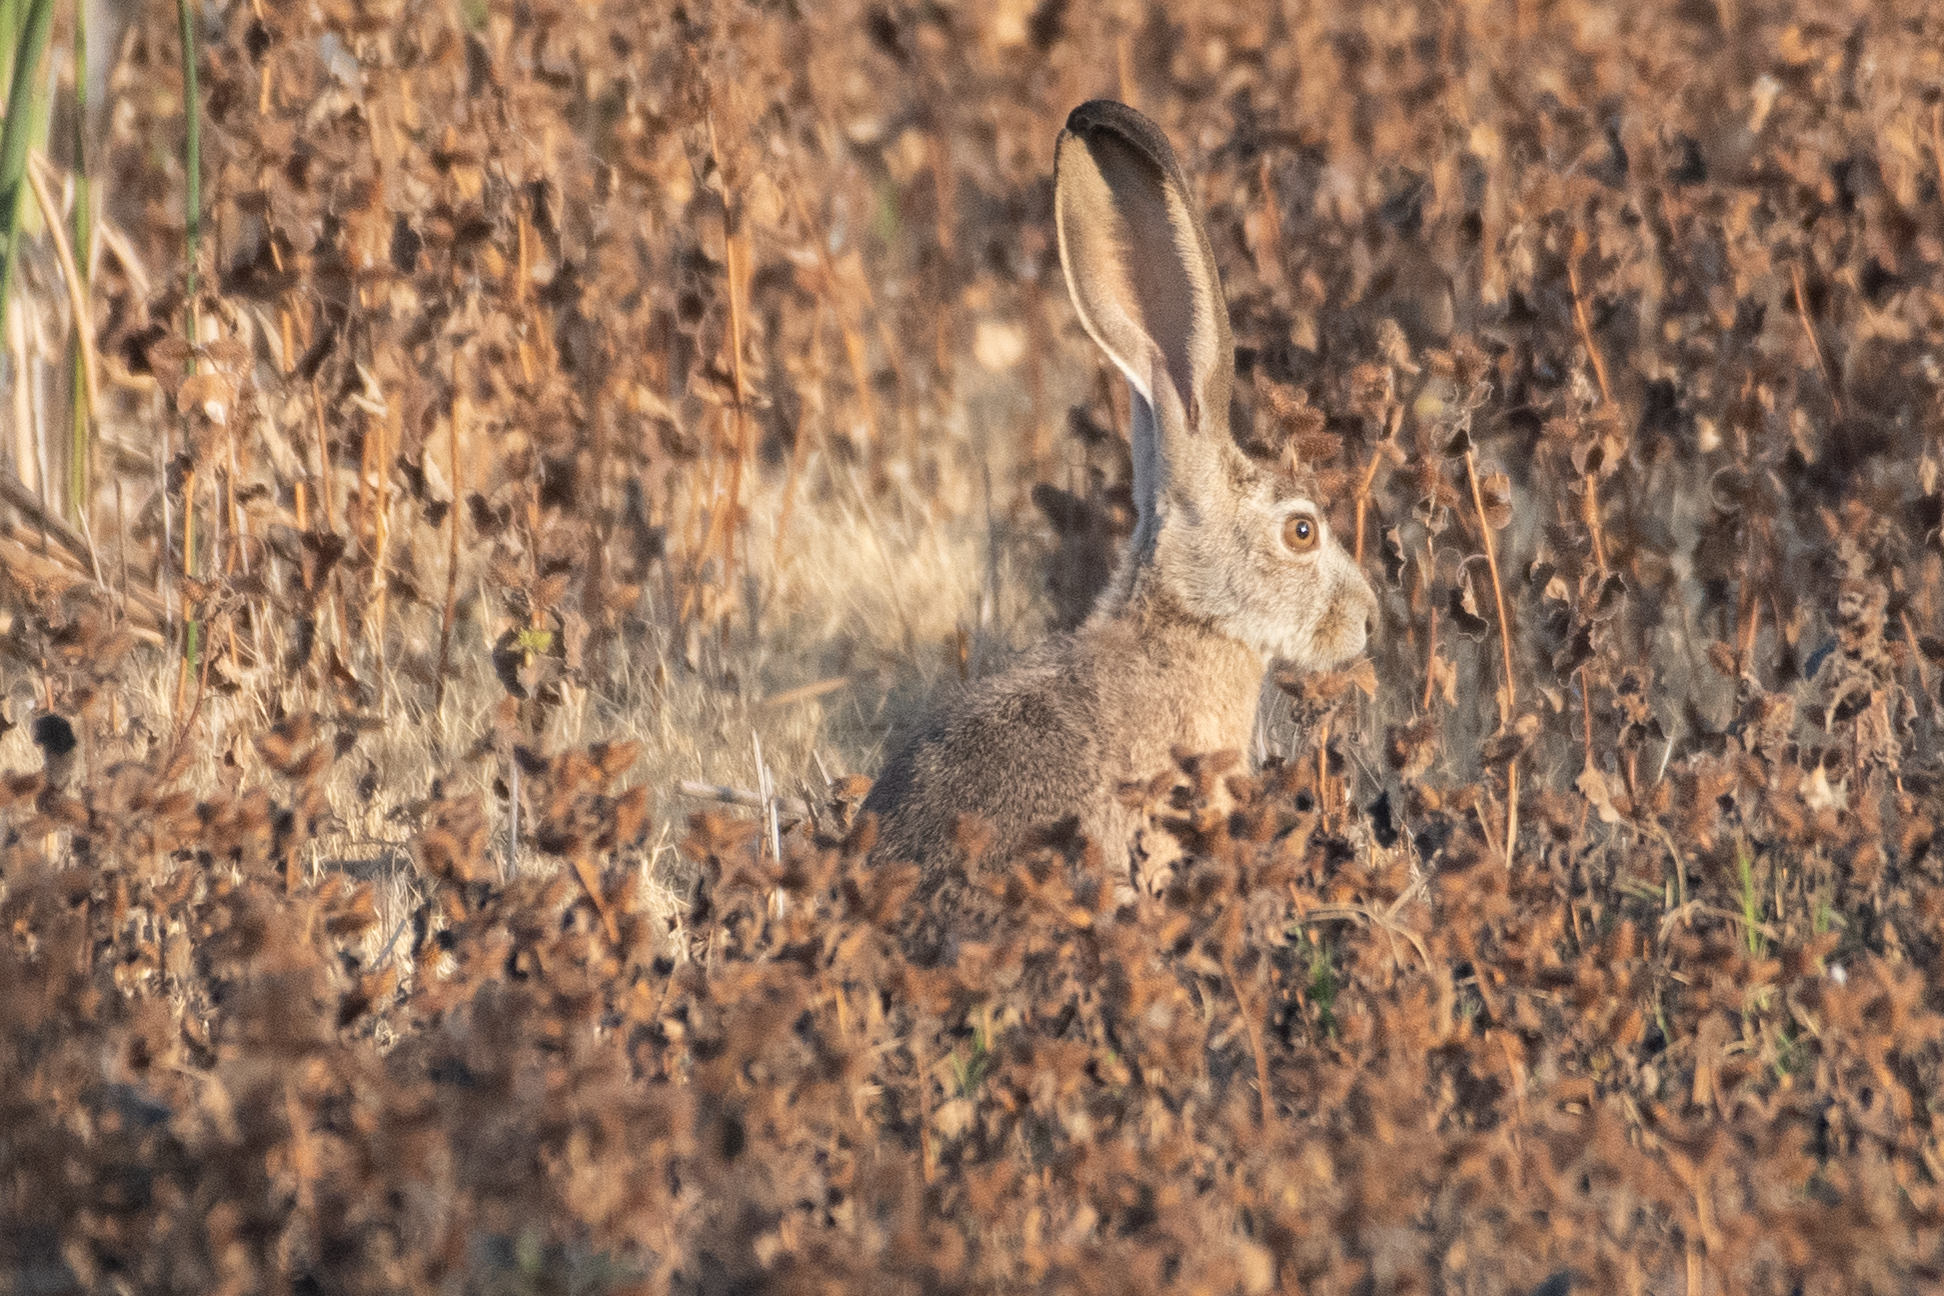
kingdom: Animalia
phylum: Chordata
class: Mammalia
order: Lagomorpha
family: Leporidae
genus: Lepus
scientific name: Lepus californicus
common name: Black-tailed jackrabbit
